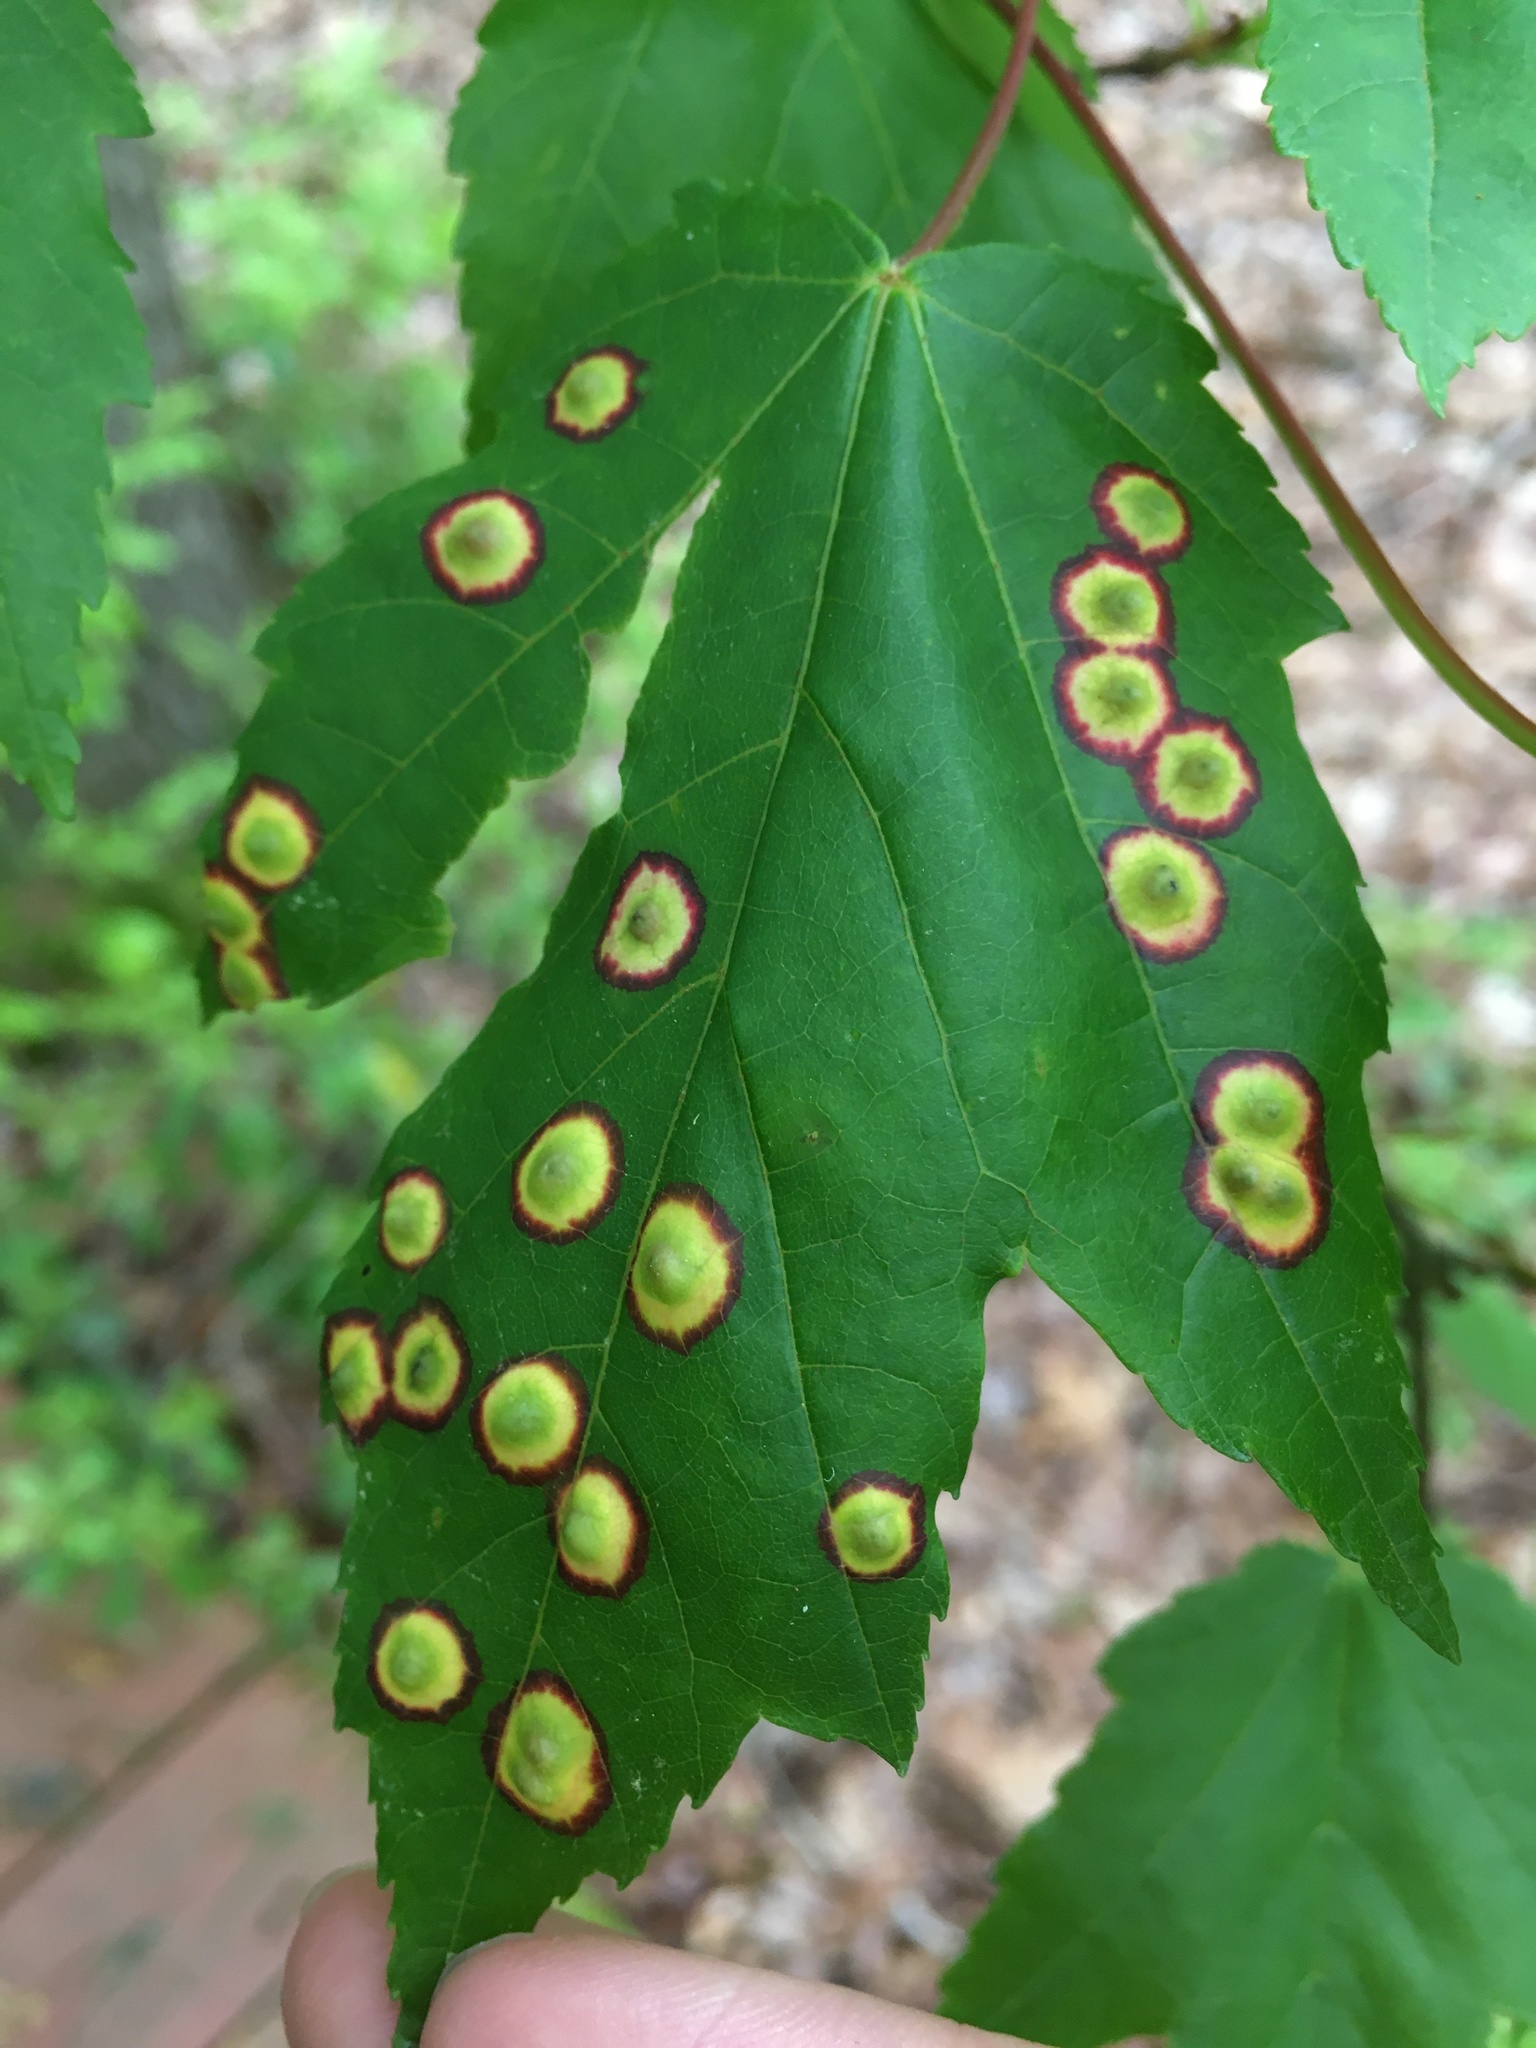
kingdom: Animalia
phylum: Arthropoda
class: Insecta
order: Diptera
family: Cecidomyiidae
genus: Acericecis
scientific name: Acericecis ocellaris
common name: Ocellate gall midge
